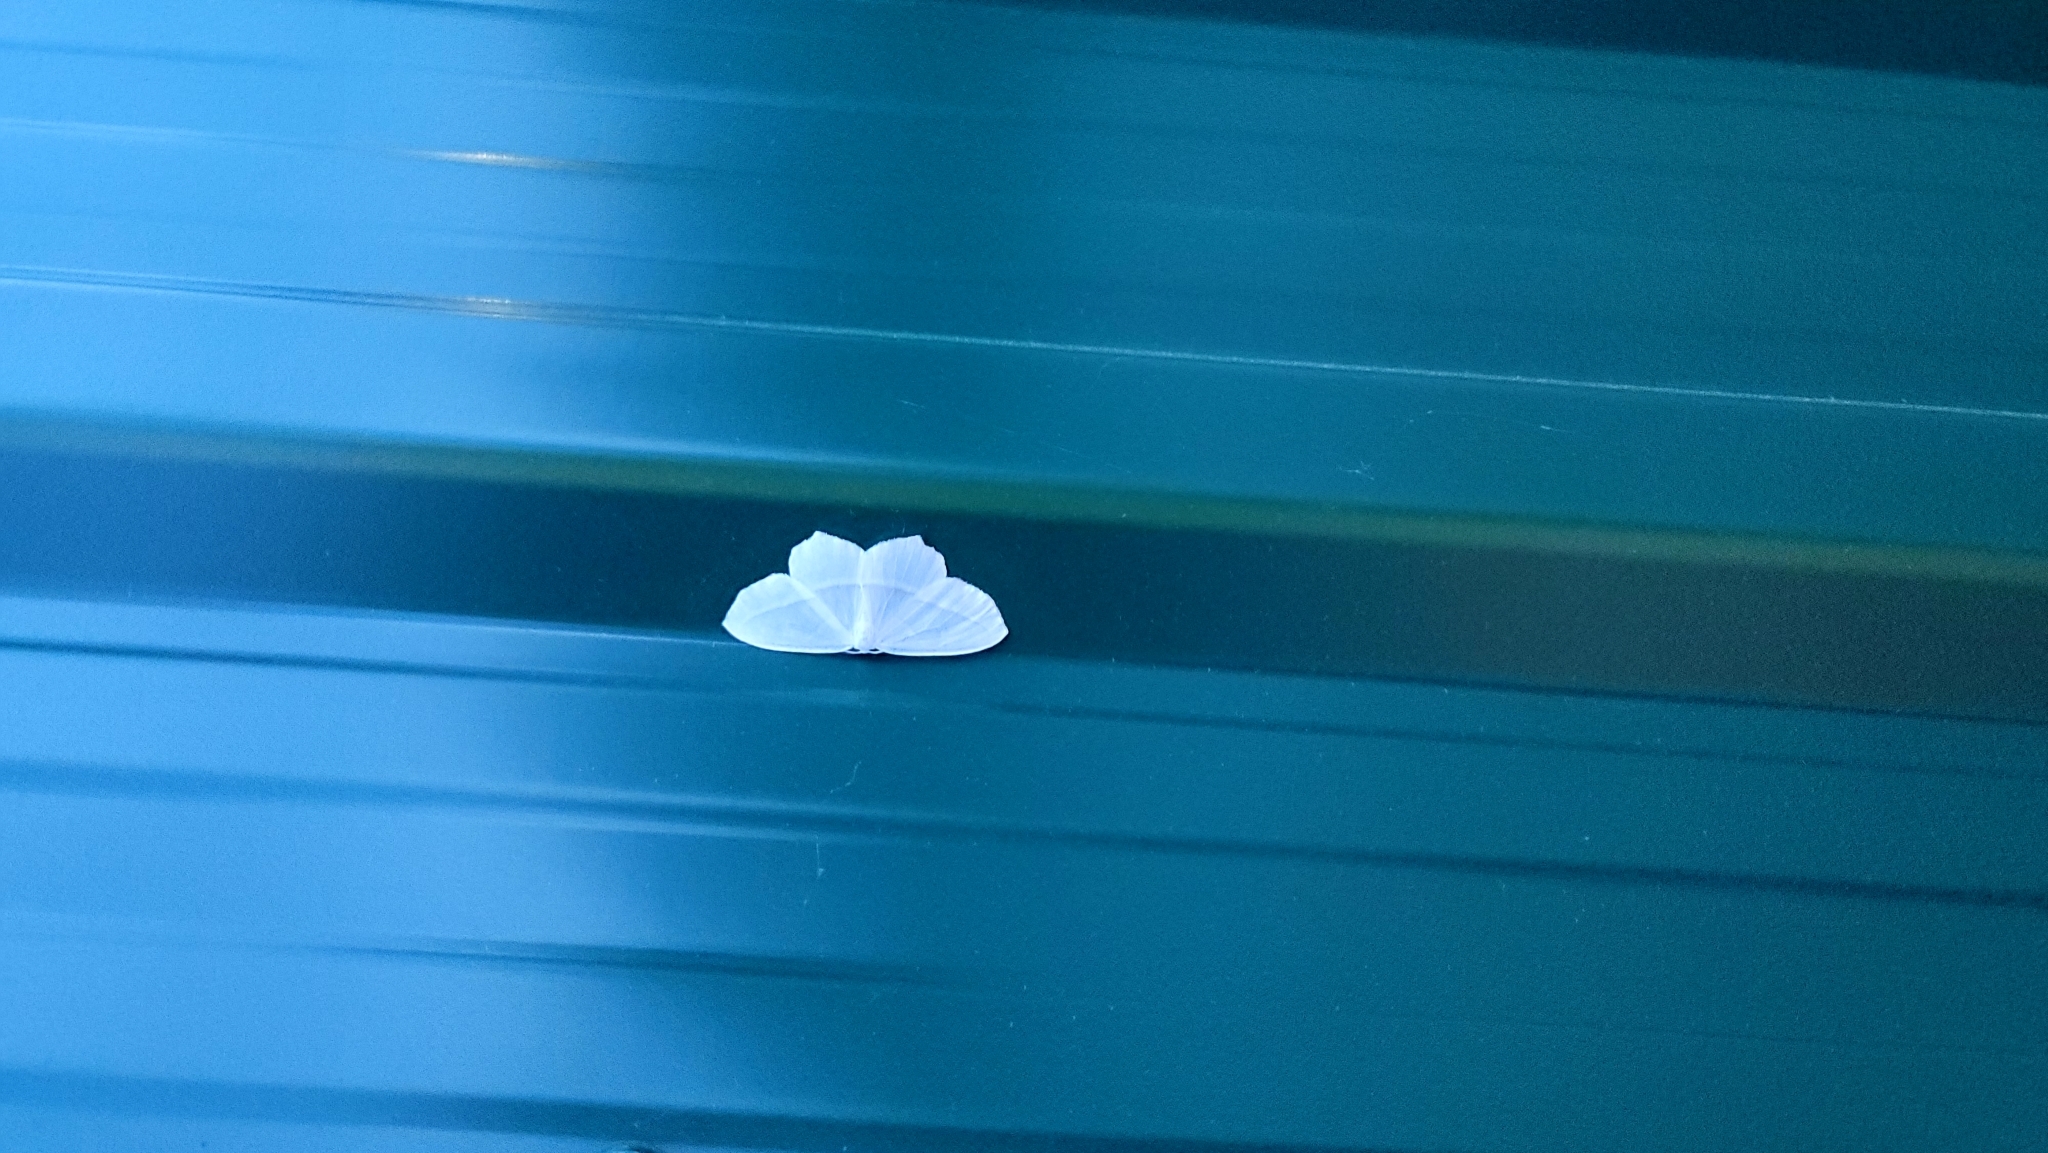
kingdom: Animalia
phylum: Arthropoda
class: Insecta
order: Lepidoptera
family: Geometridae
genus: Campaea
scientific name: Campaea perlata
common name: Fringed looper
